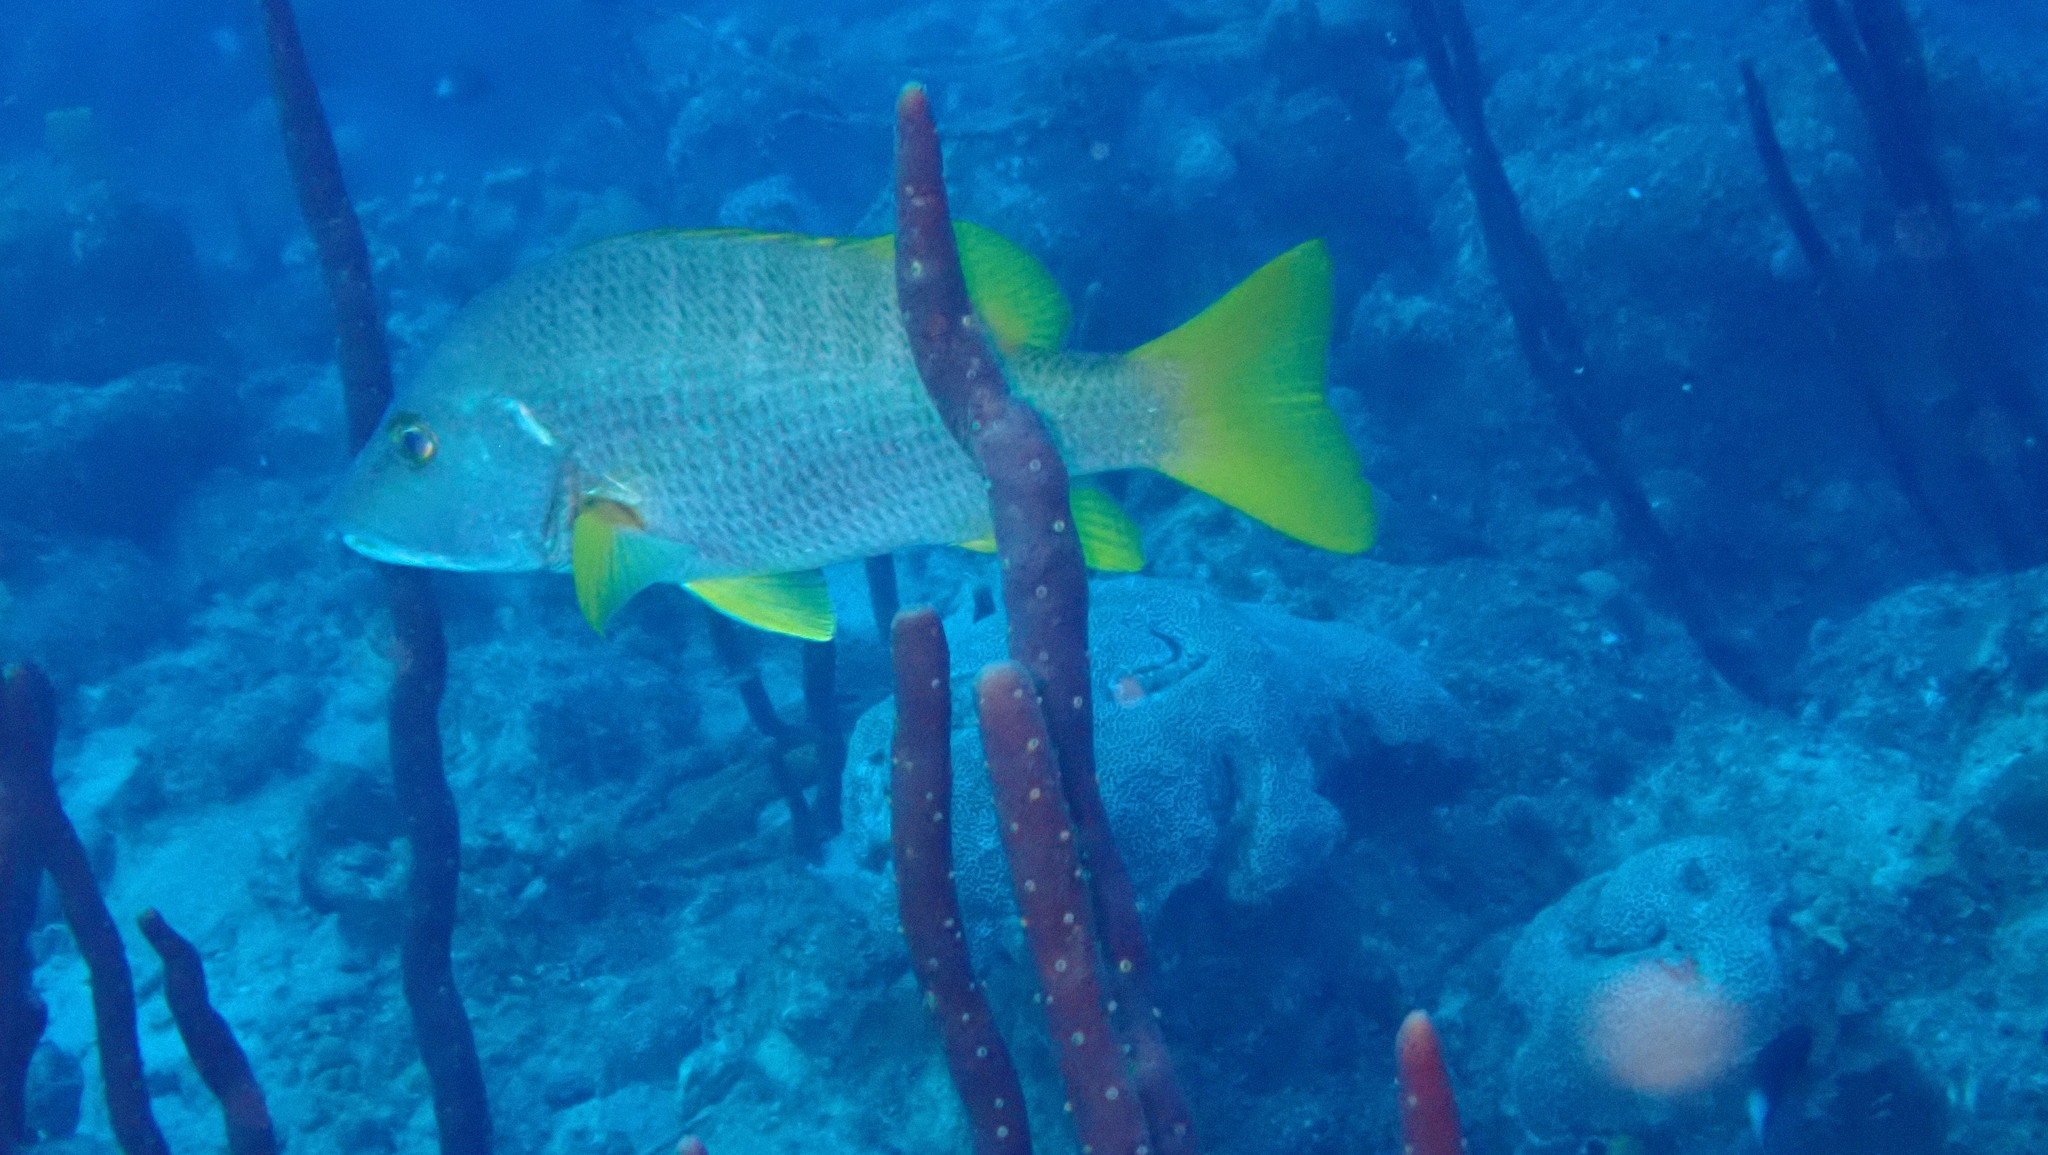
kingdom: Animalia
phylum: Chordata
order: Perciformes
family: Lutjanidae
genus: Lutjanus
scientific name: Lutjanus apodus
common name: Schoolmaster
